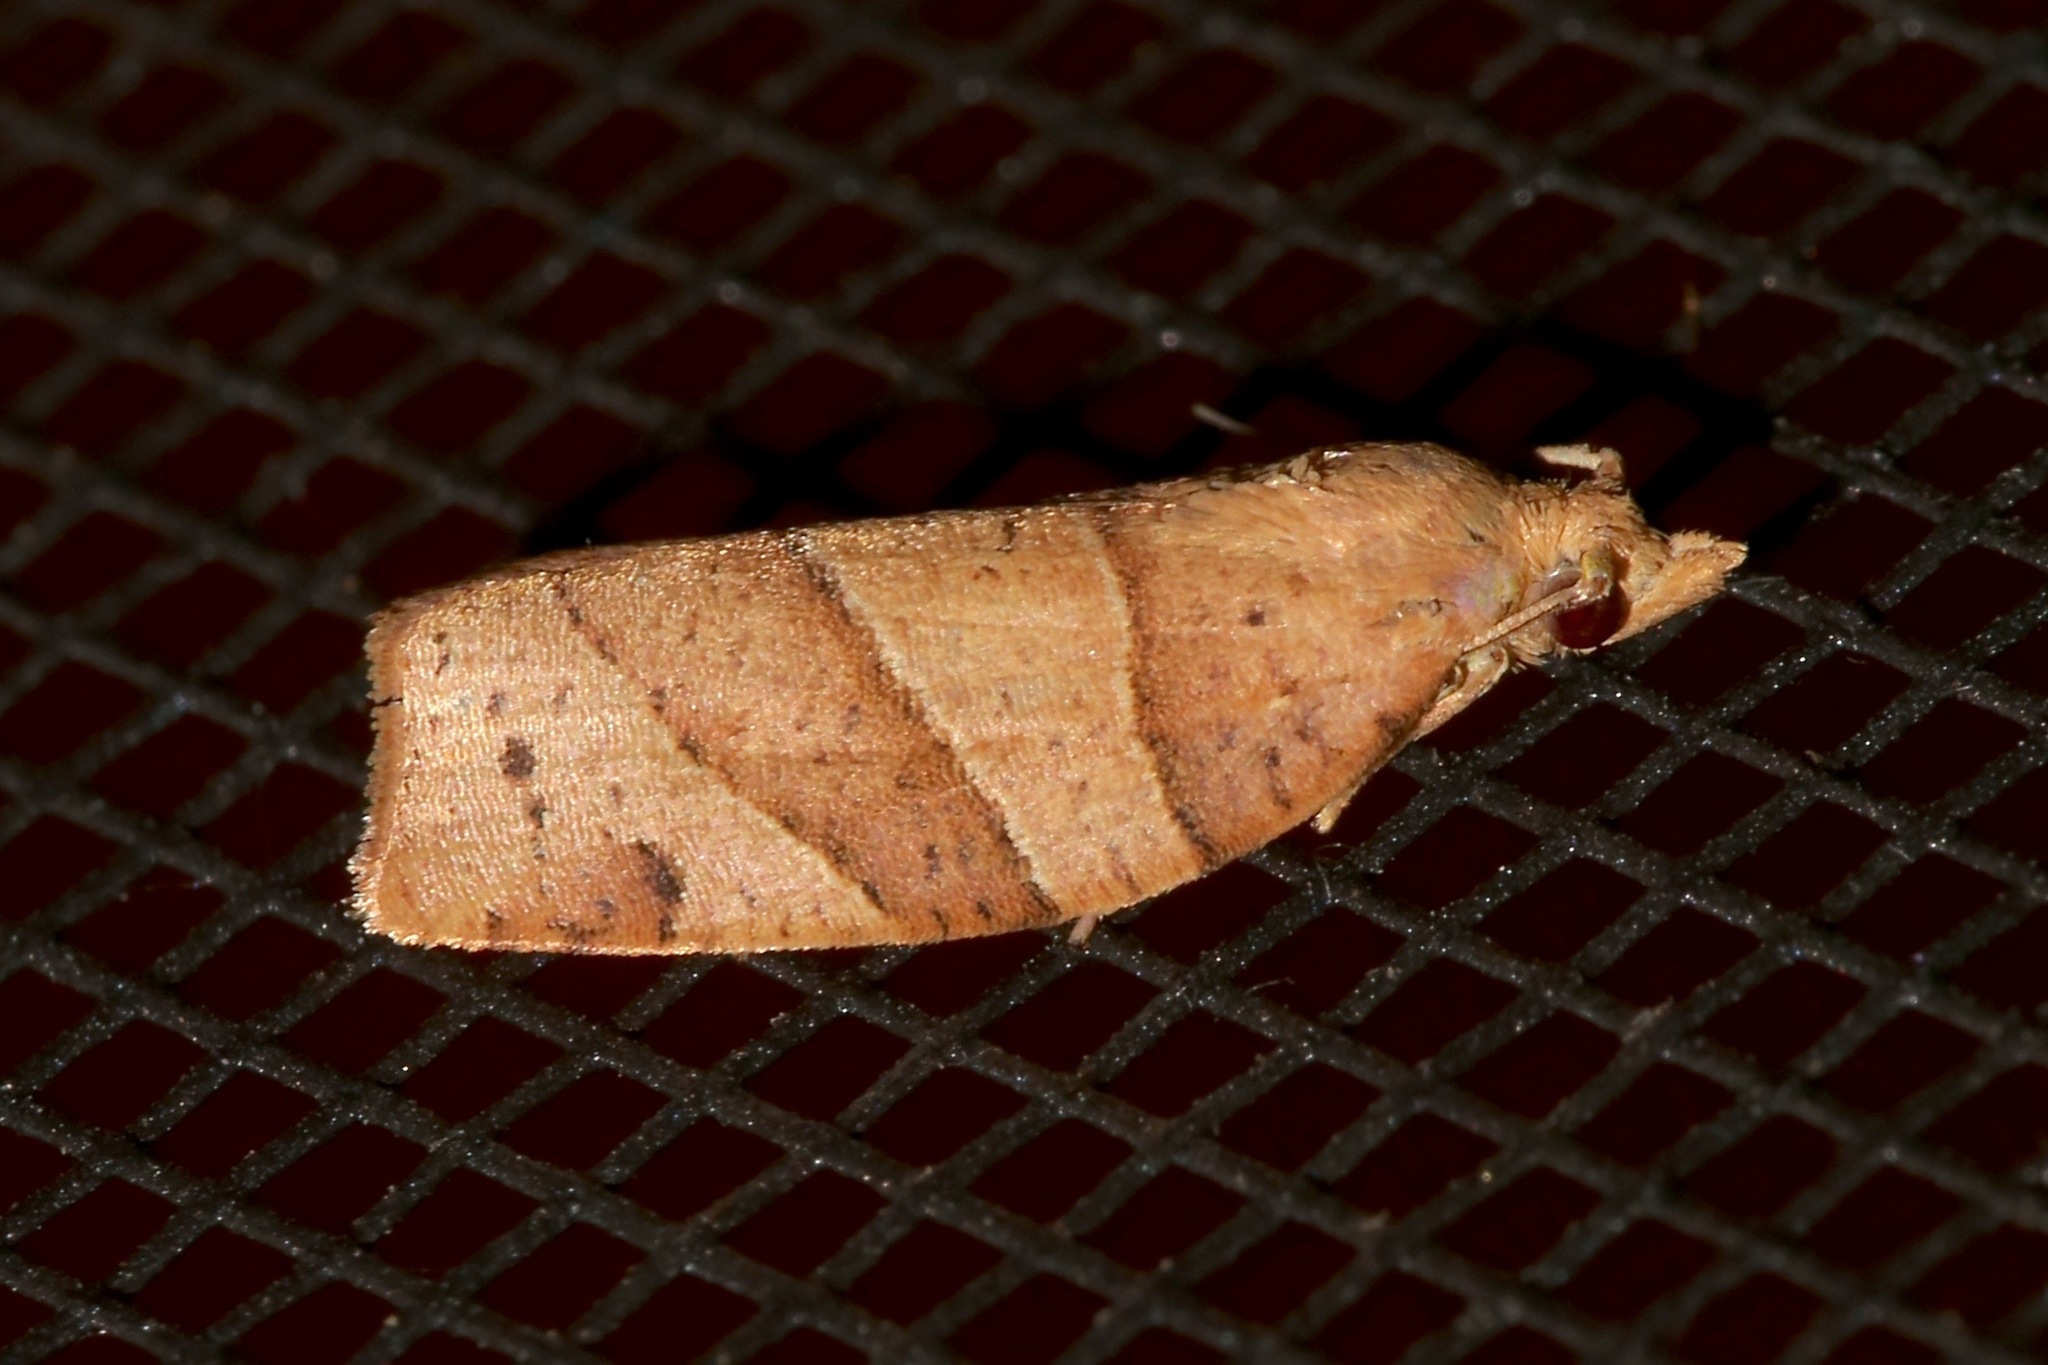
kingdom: Animalia
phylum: Arthropoda
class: Insecta
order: Lepidoptera
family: Tortricidae
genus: Pandemis
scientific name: Pandemis lamprosana
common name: Woodgrain leafroller moth
